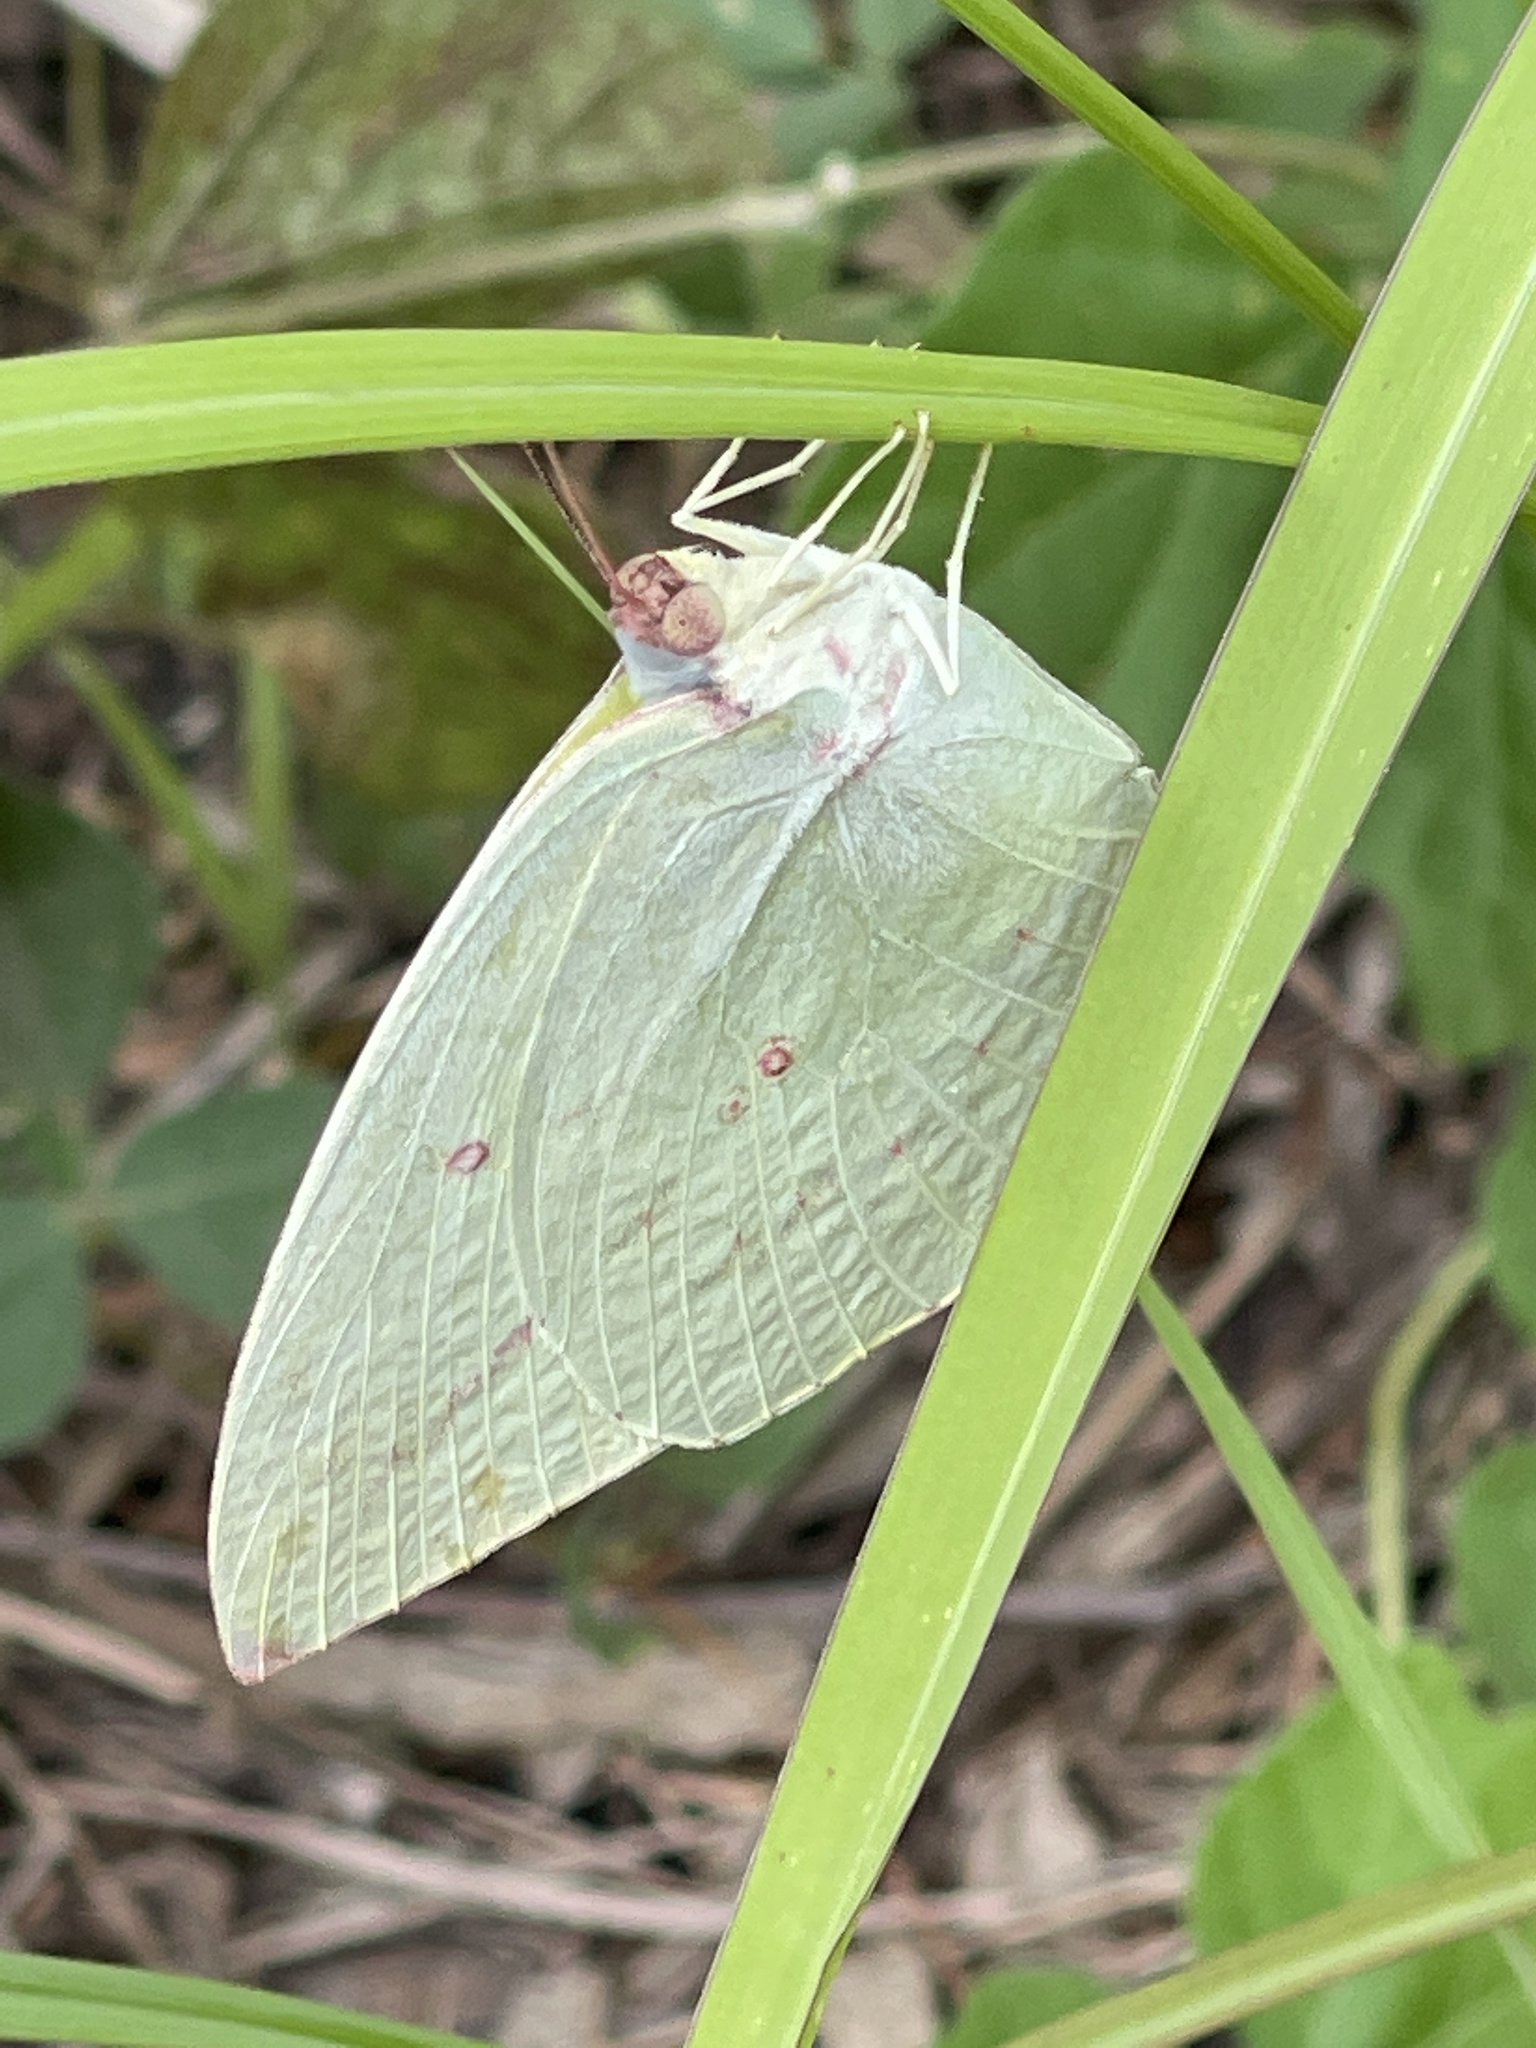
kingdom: Animalia
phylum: Arthropoda
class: Insecta
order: Lepidoptera
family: Pieridae
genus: Catopsilia
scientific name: Catopsilia pomona
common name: Common emigrant
